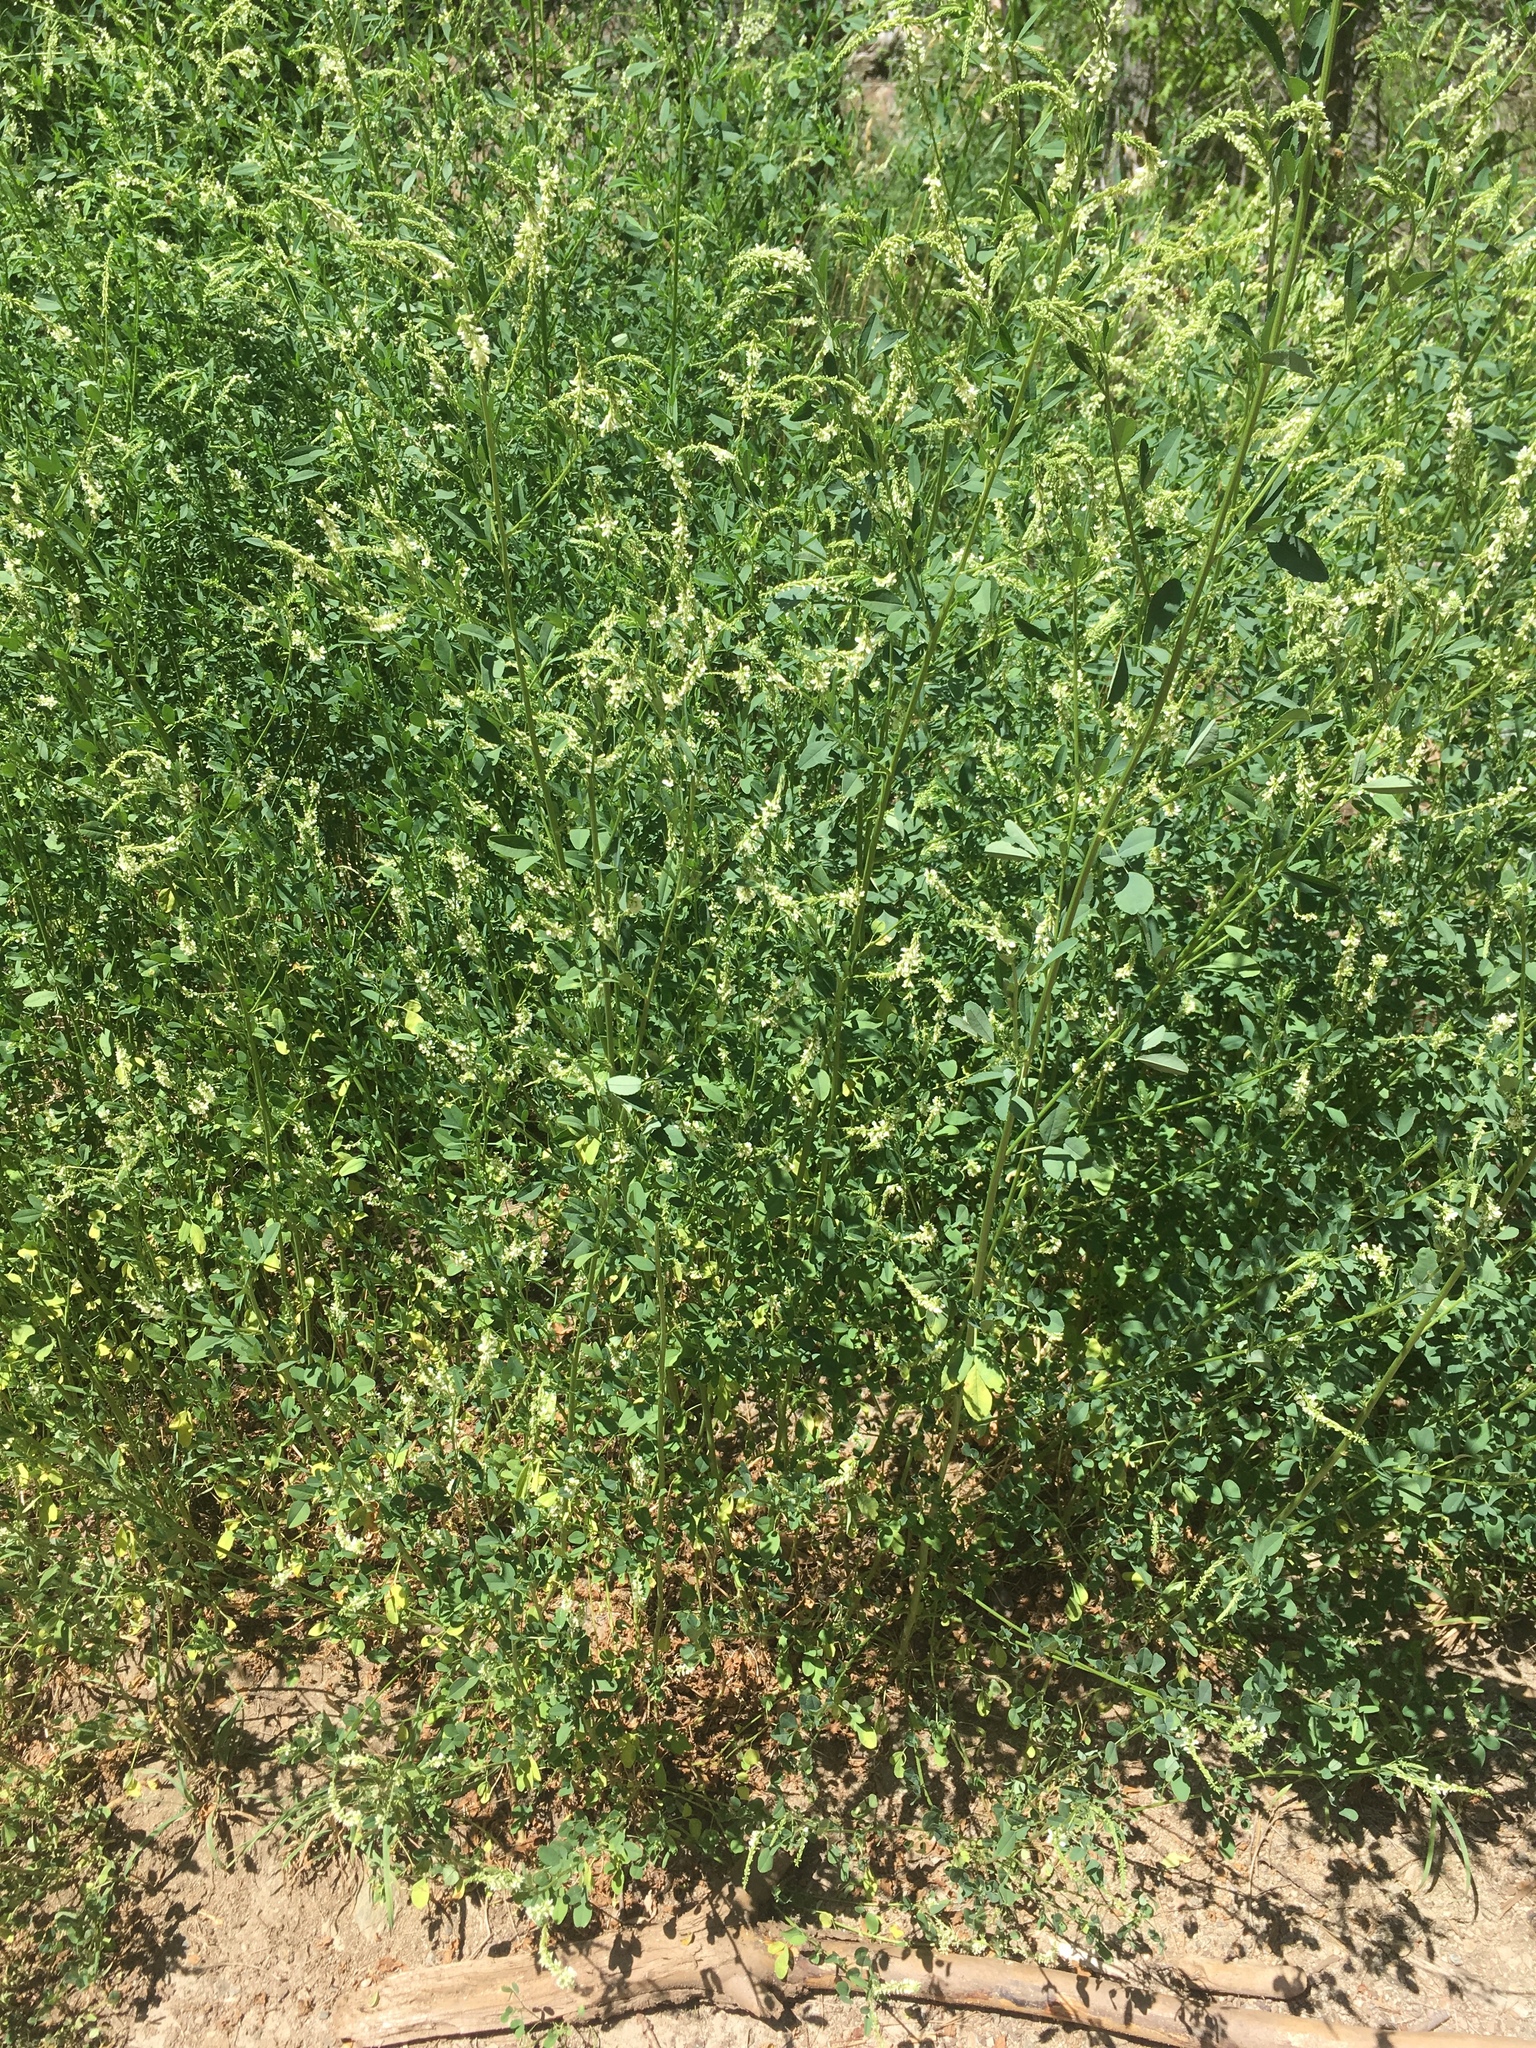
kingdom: Plantae
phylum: Tracheophyta
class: Magnoliopsida
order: Fabales
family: Fabaceae
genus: Melilotus
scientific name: Melilotus albus
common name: White melilot
